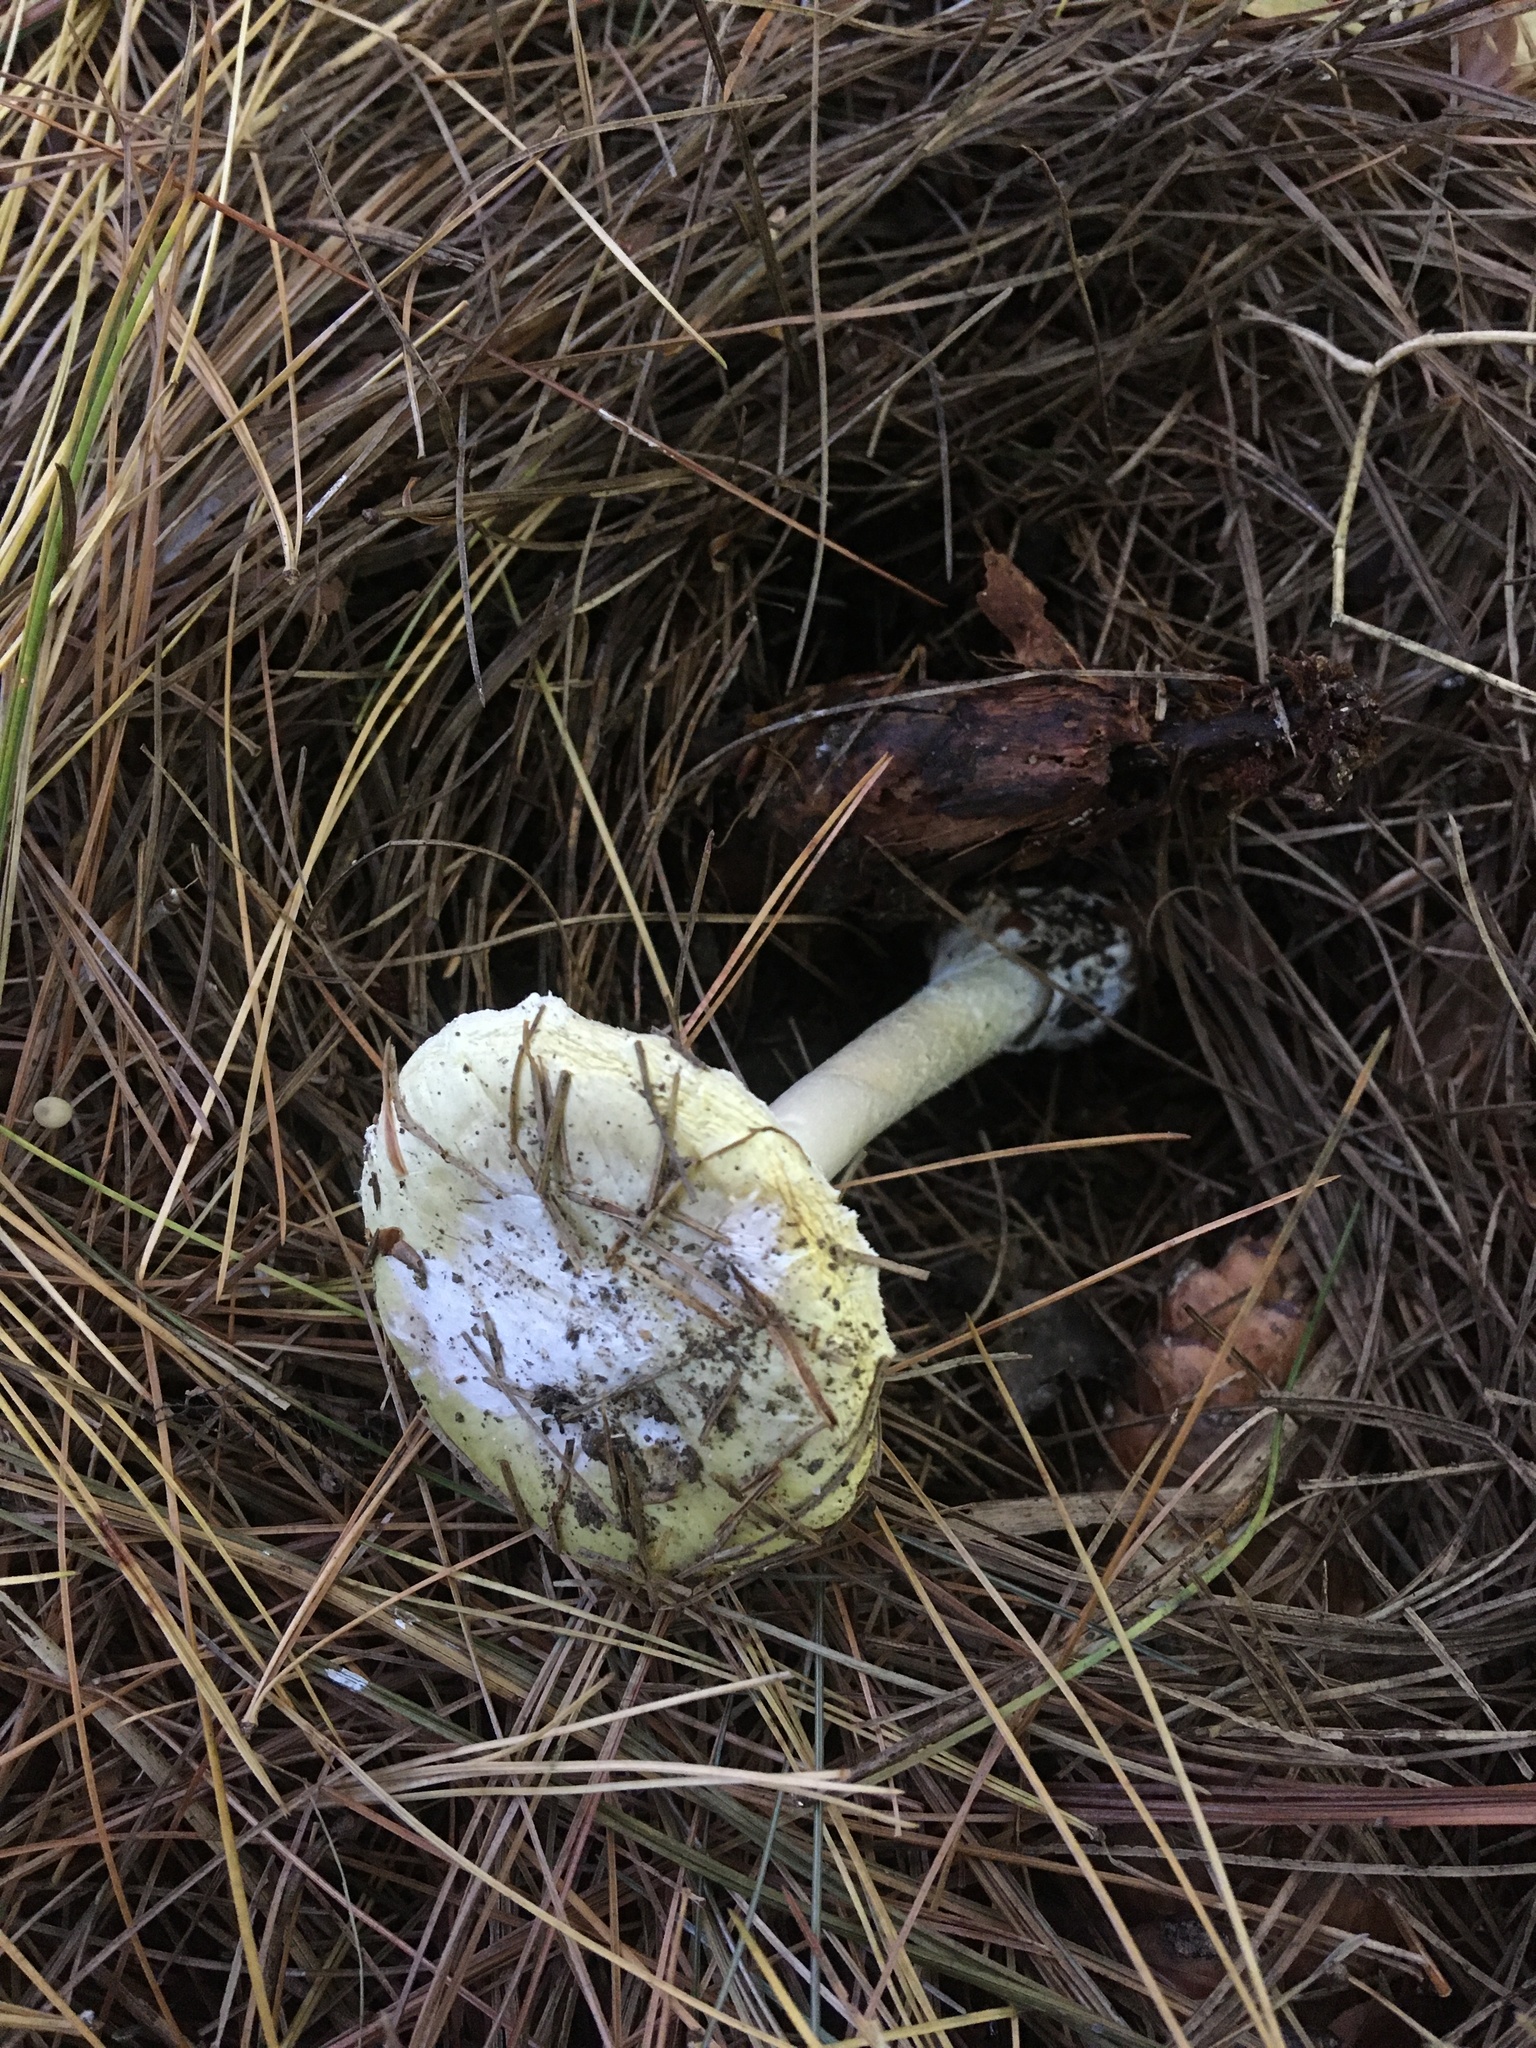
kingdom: Fungi
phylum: Basidiomycota
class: Agaricomycetes
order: Agaricales
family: Amanitaceae
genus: Amanita
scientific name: Amanita phalloides
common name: Death cap
